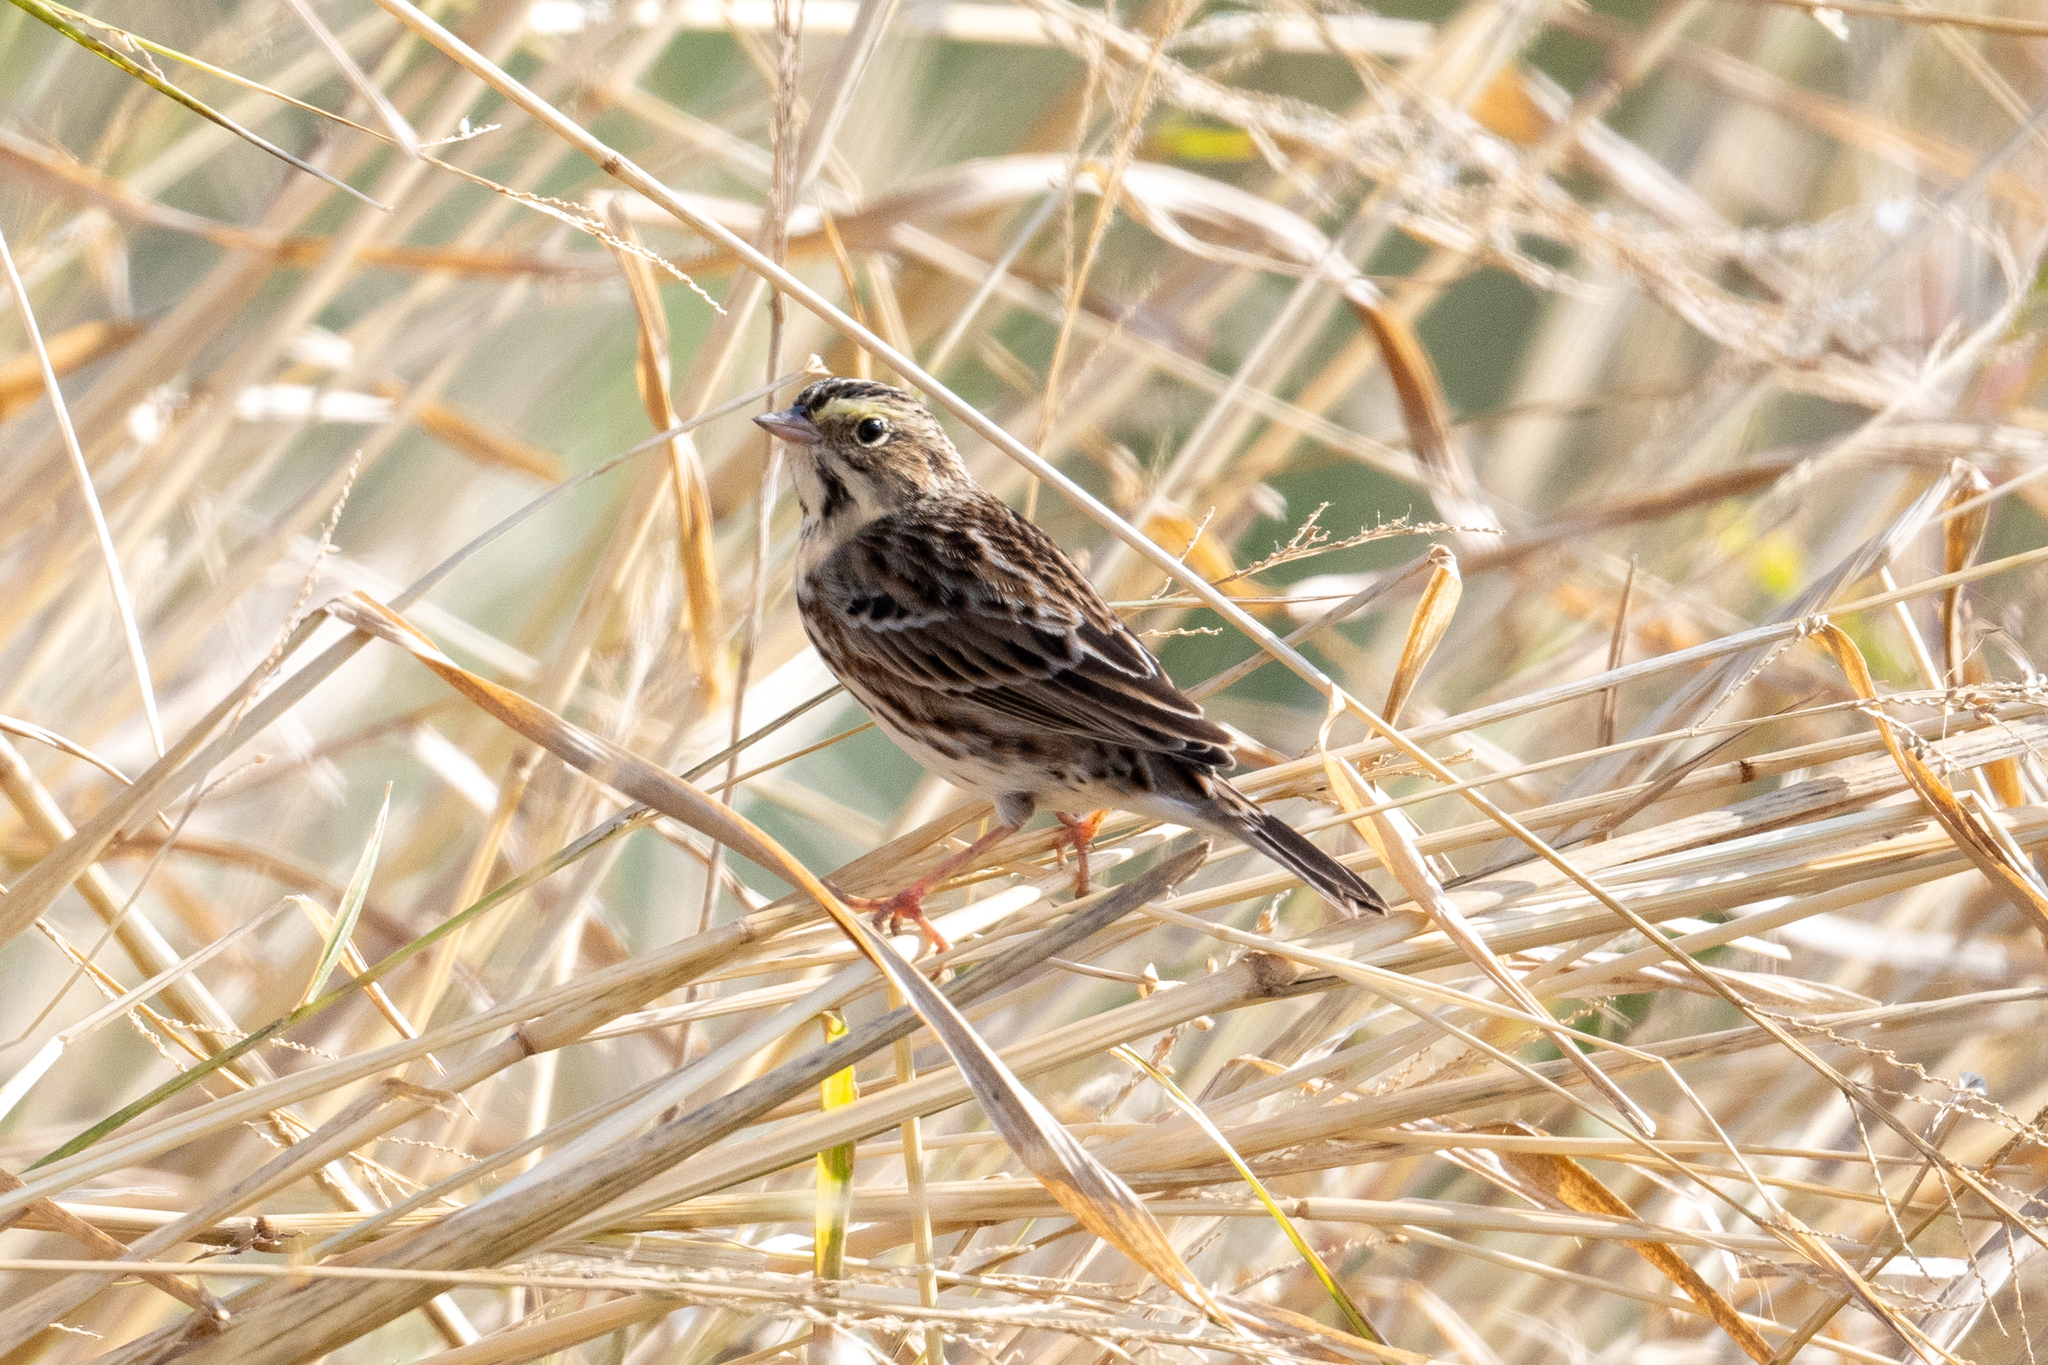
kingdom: Animalia
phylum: Chordata
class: Aves
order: Passeriformes
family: Passerellidae
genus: Passerculus
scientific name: Passerculus sandwichensis
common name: Savannah sparrow
